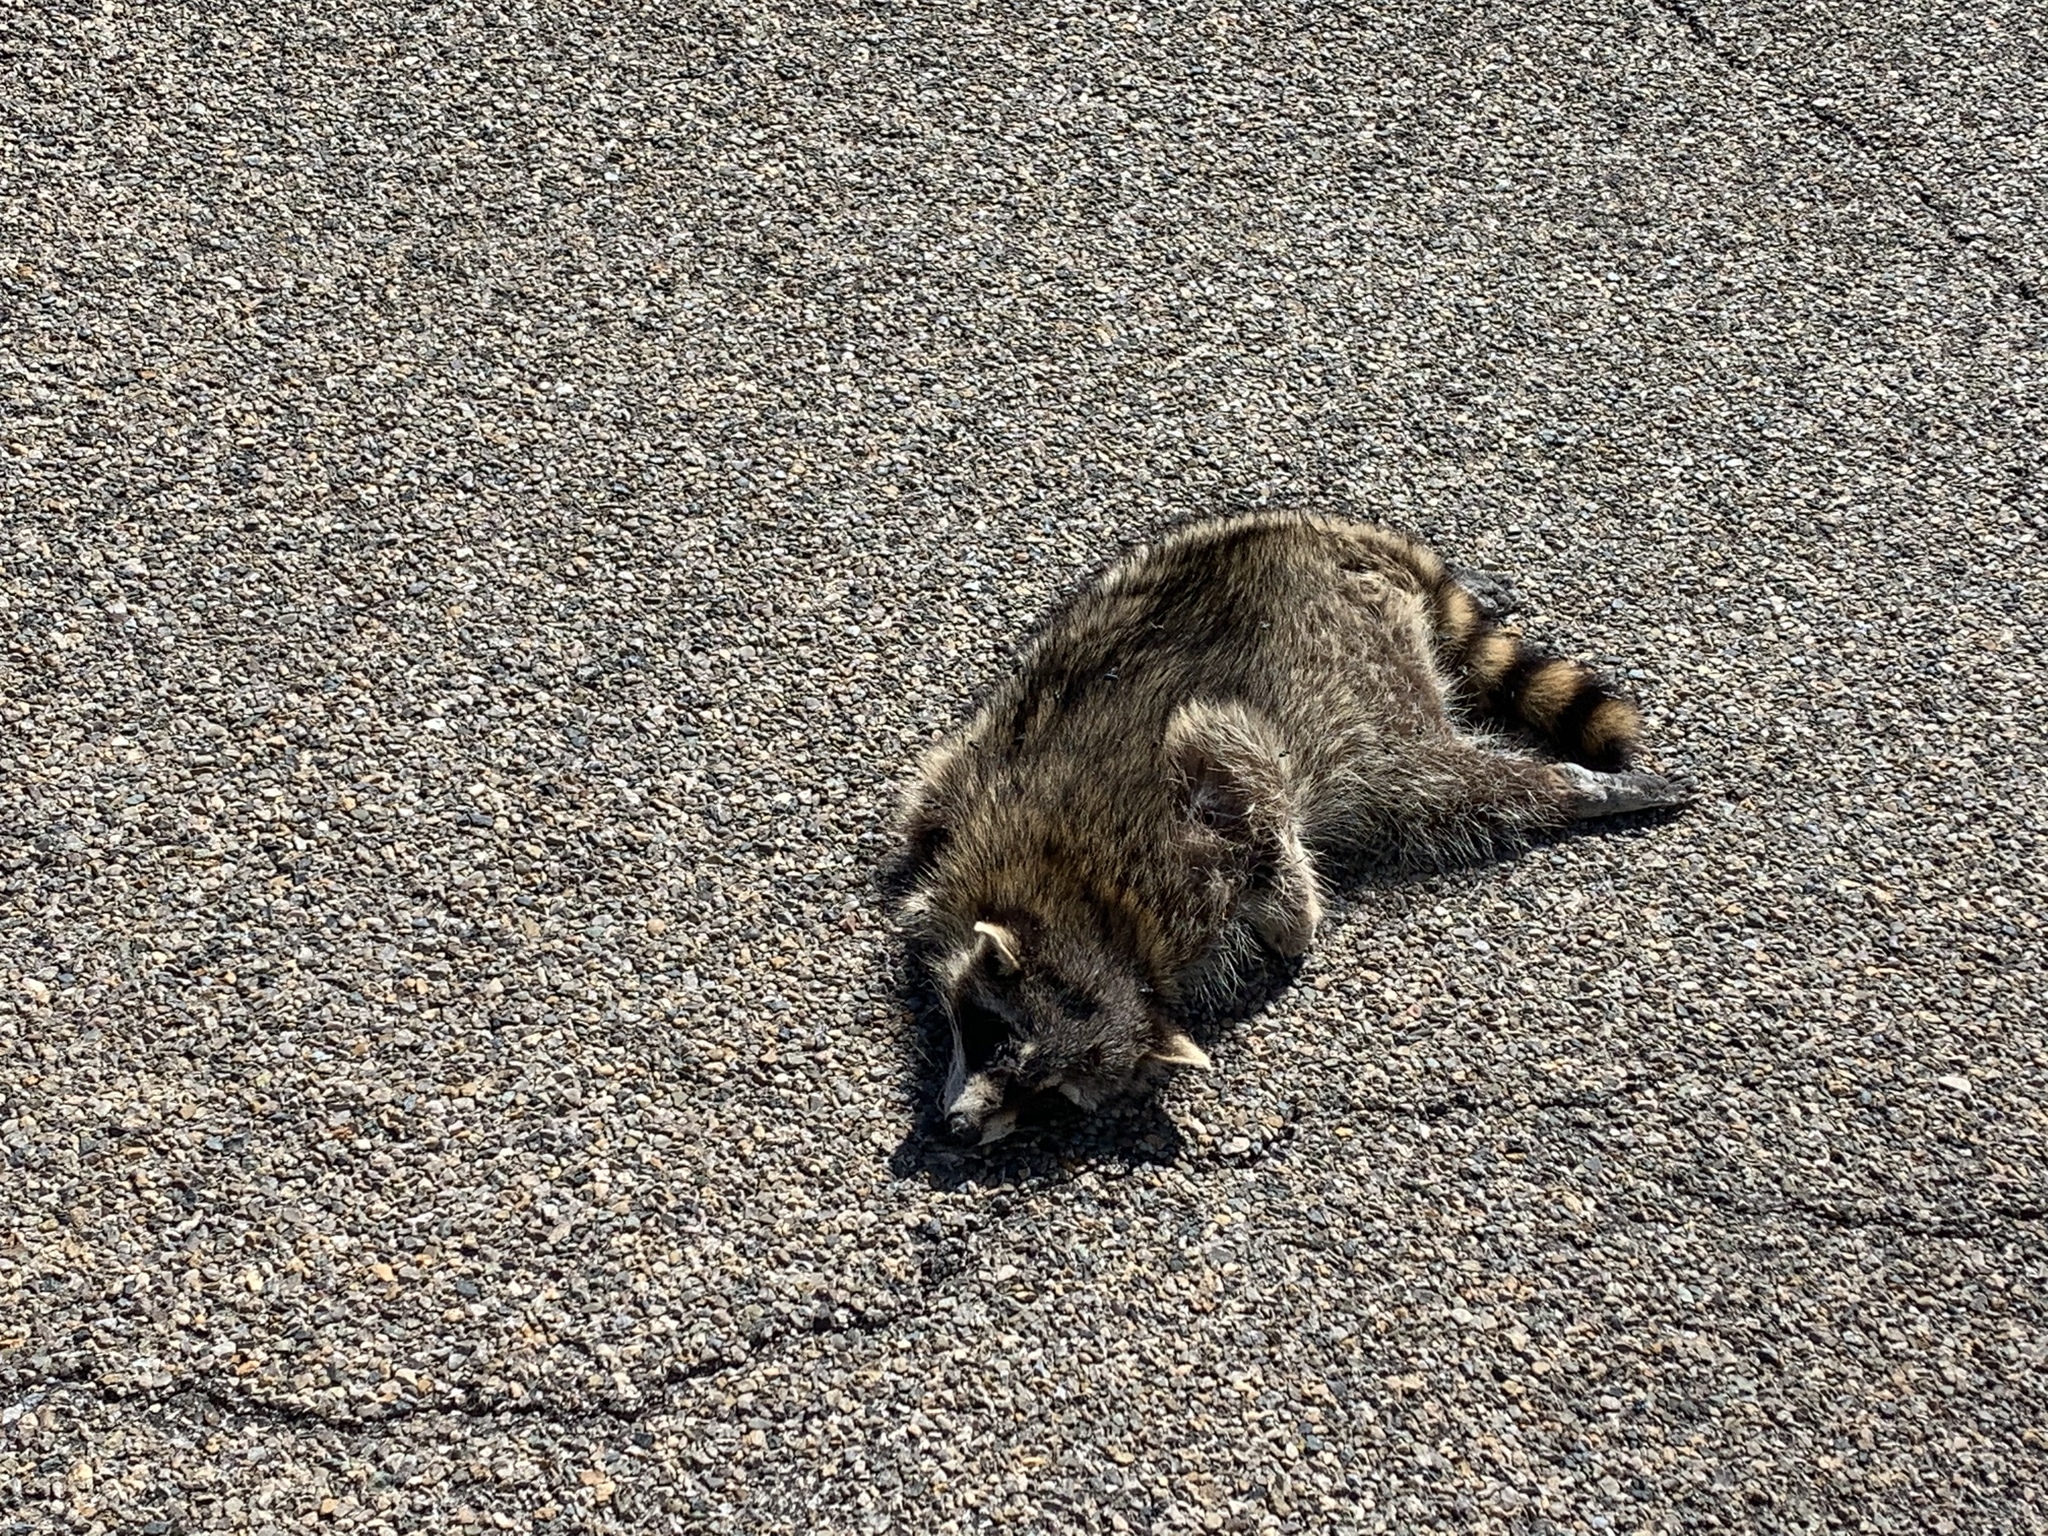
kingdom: Animalia
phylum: Chordata
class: Mammalia
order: Carnivora
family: Procyonidae
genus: Procyon
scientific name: Procyon lotor
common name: Raccoon
